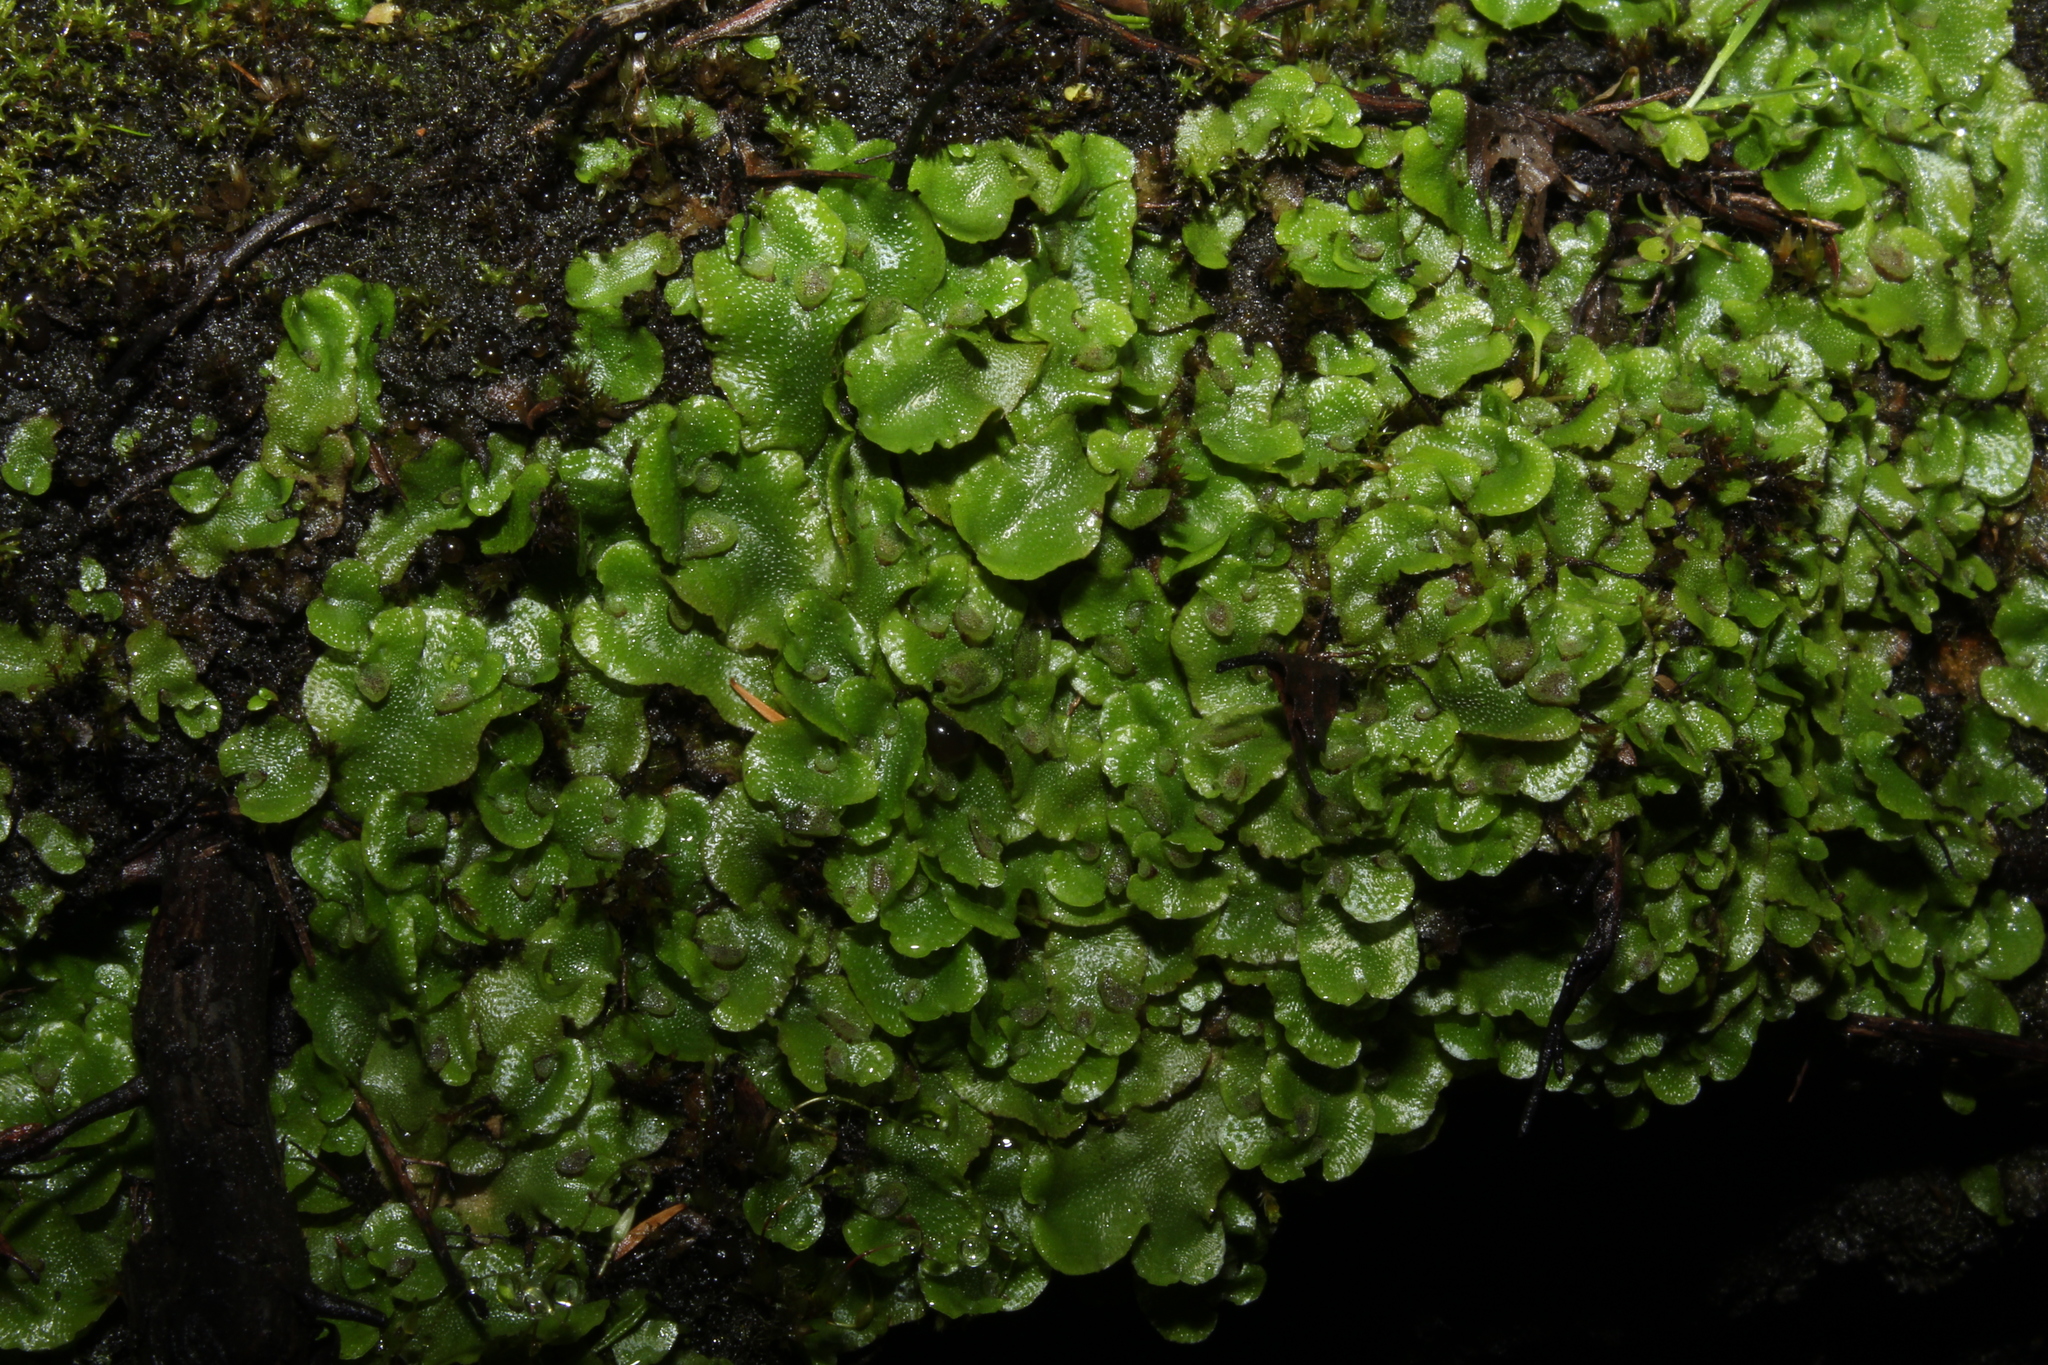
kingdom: Plantae
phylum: Marchantiophyta
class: Marchantiopsida
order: Lunulariales
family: Lunulariaceae
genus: Lunularia
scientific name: Lunularia cruciata
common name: Crescent-cup liverwort
